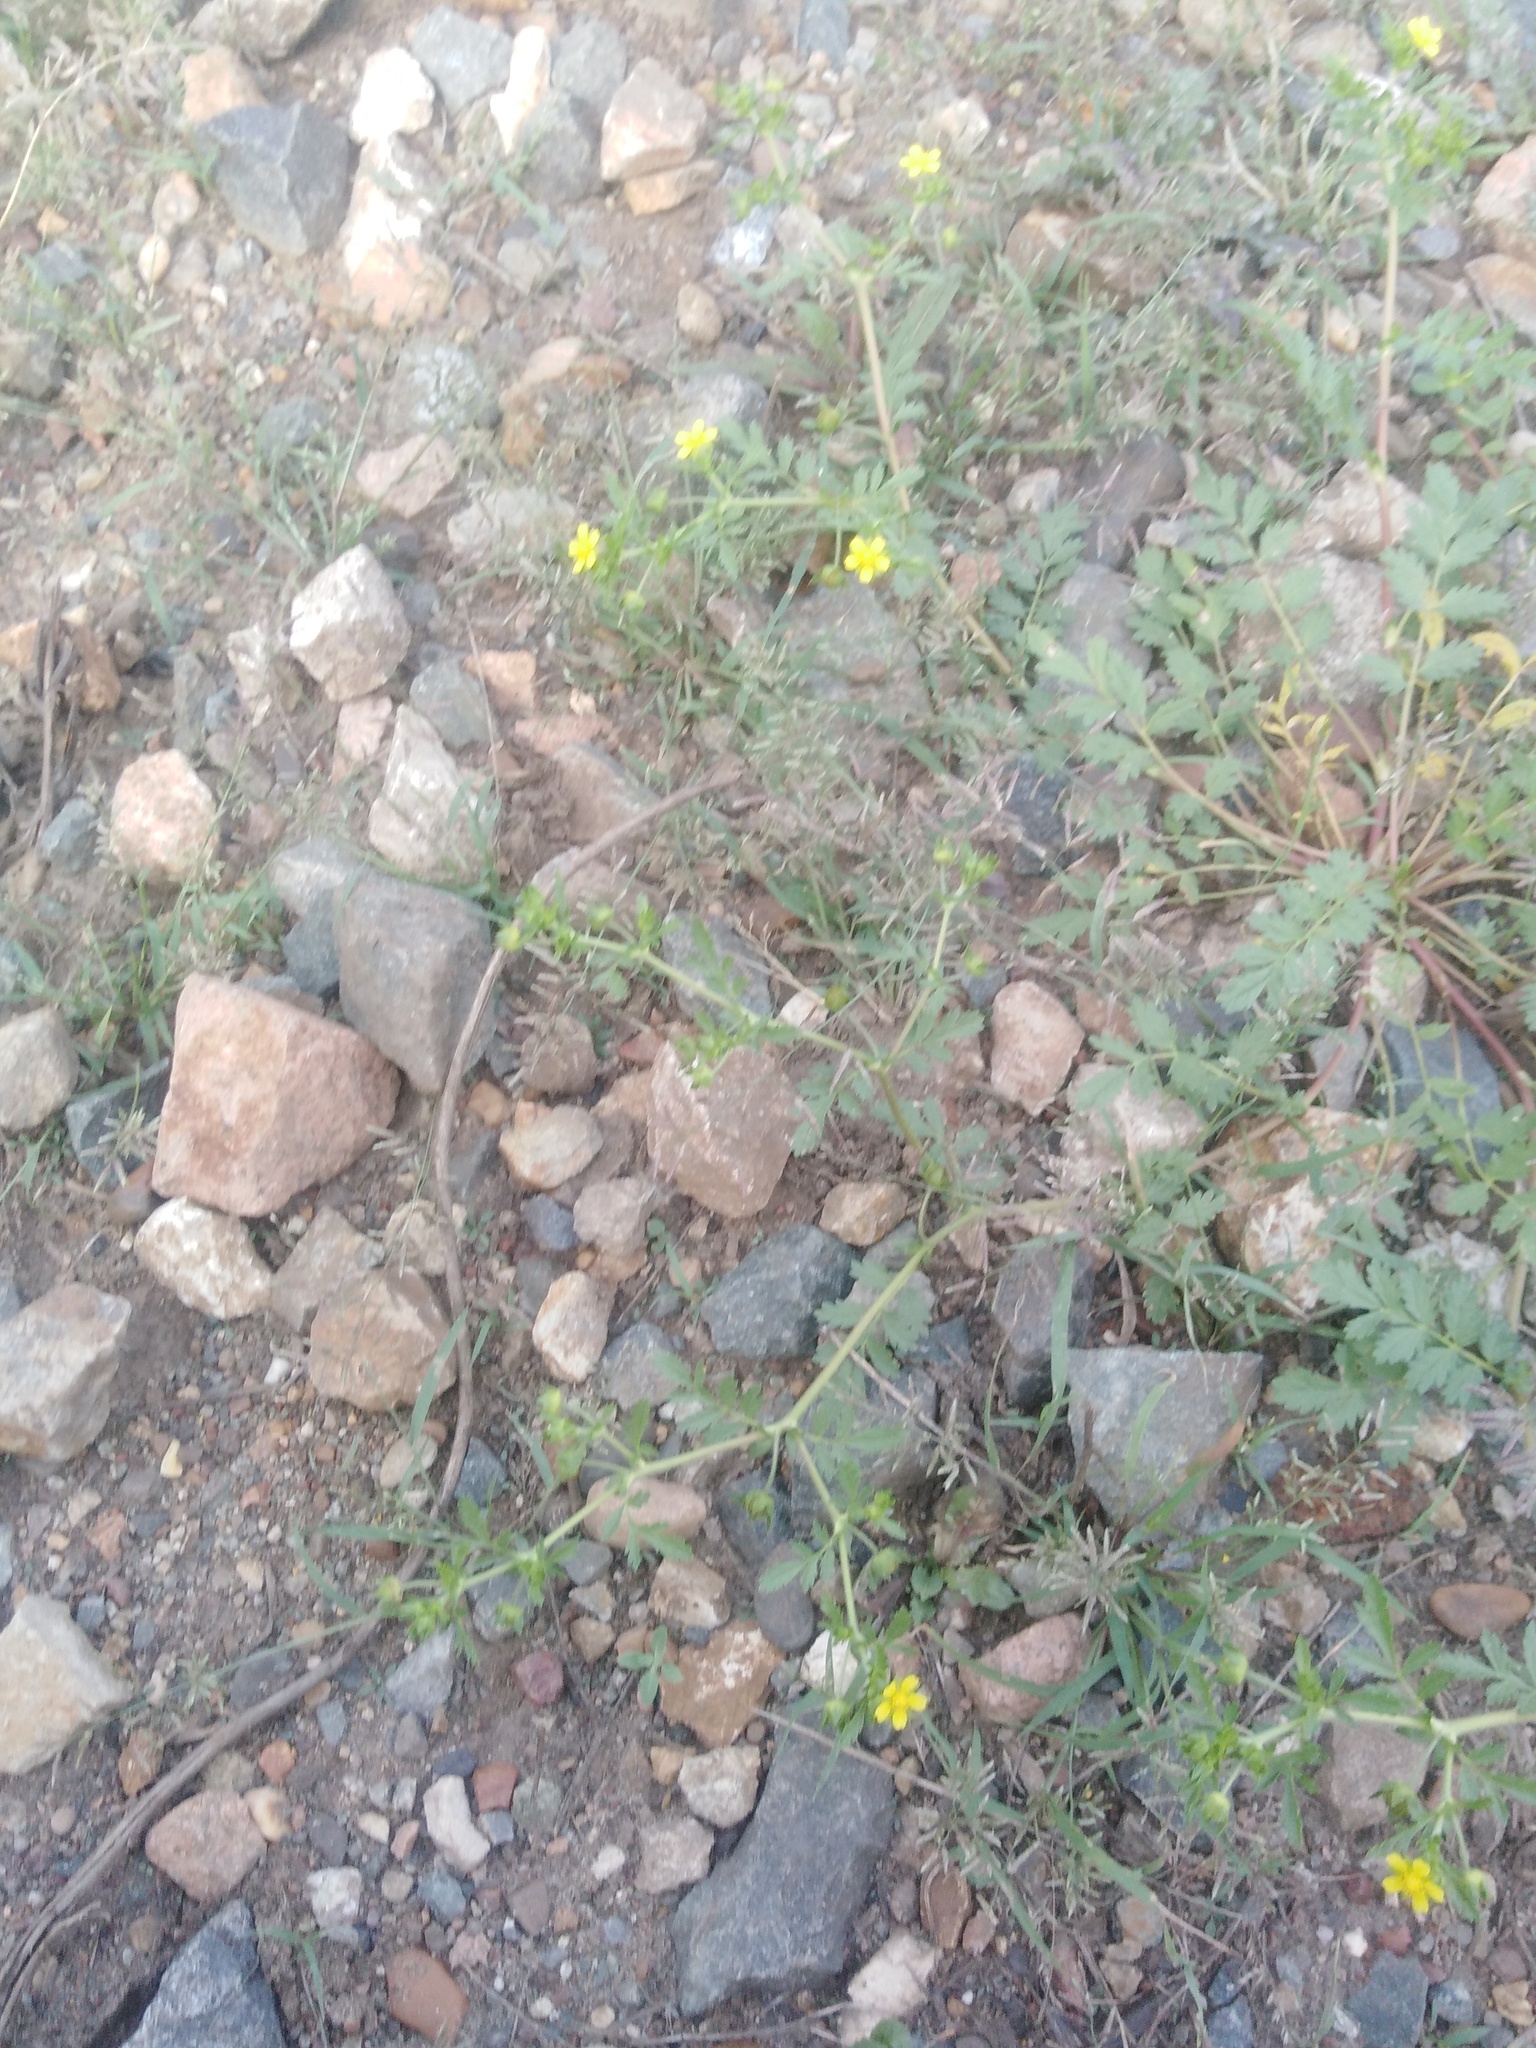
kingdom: Plantae
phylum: Tracheophyta
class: Magnoliopsida
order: Rosales
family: Rosaceae
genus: Potentilla
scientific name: Potentilla supina
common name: Prostrate cinquefoil
